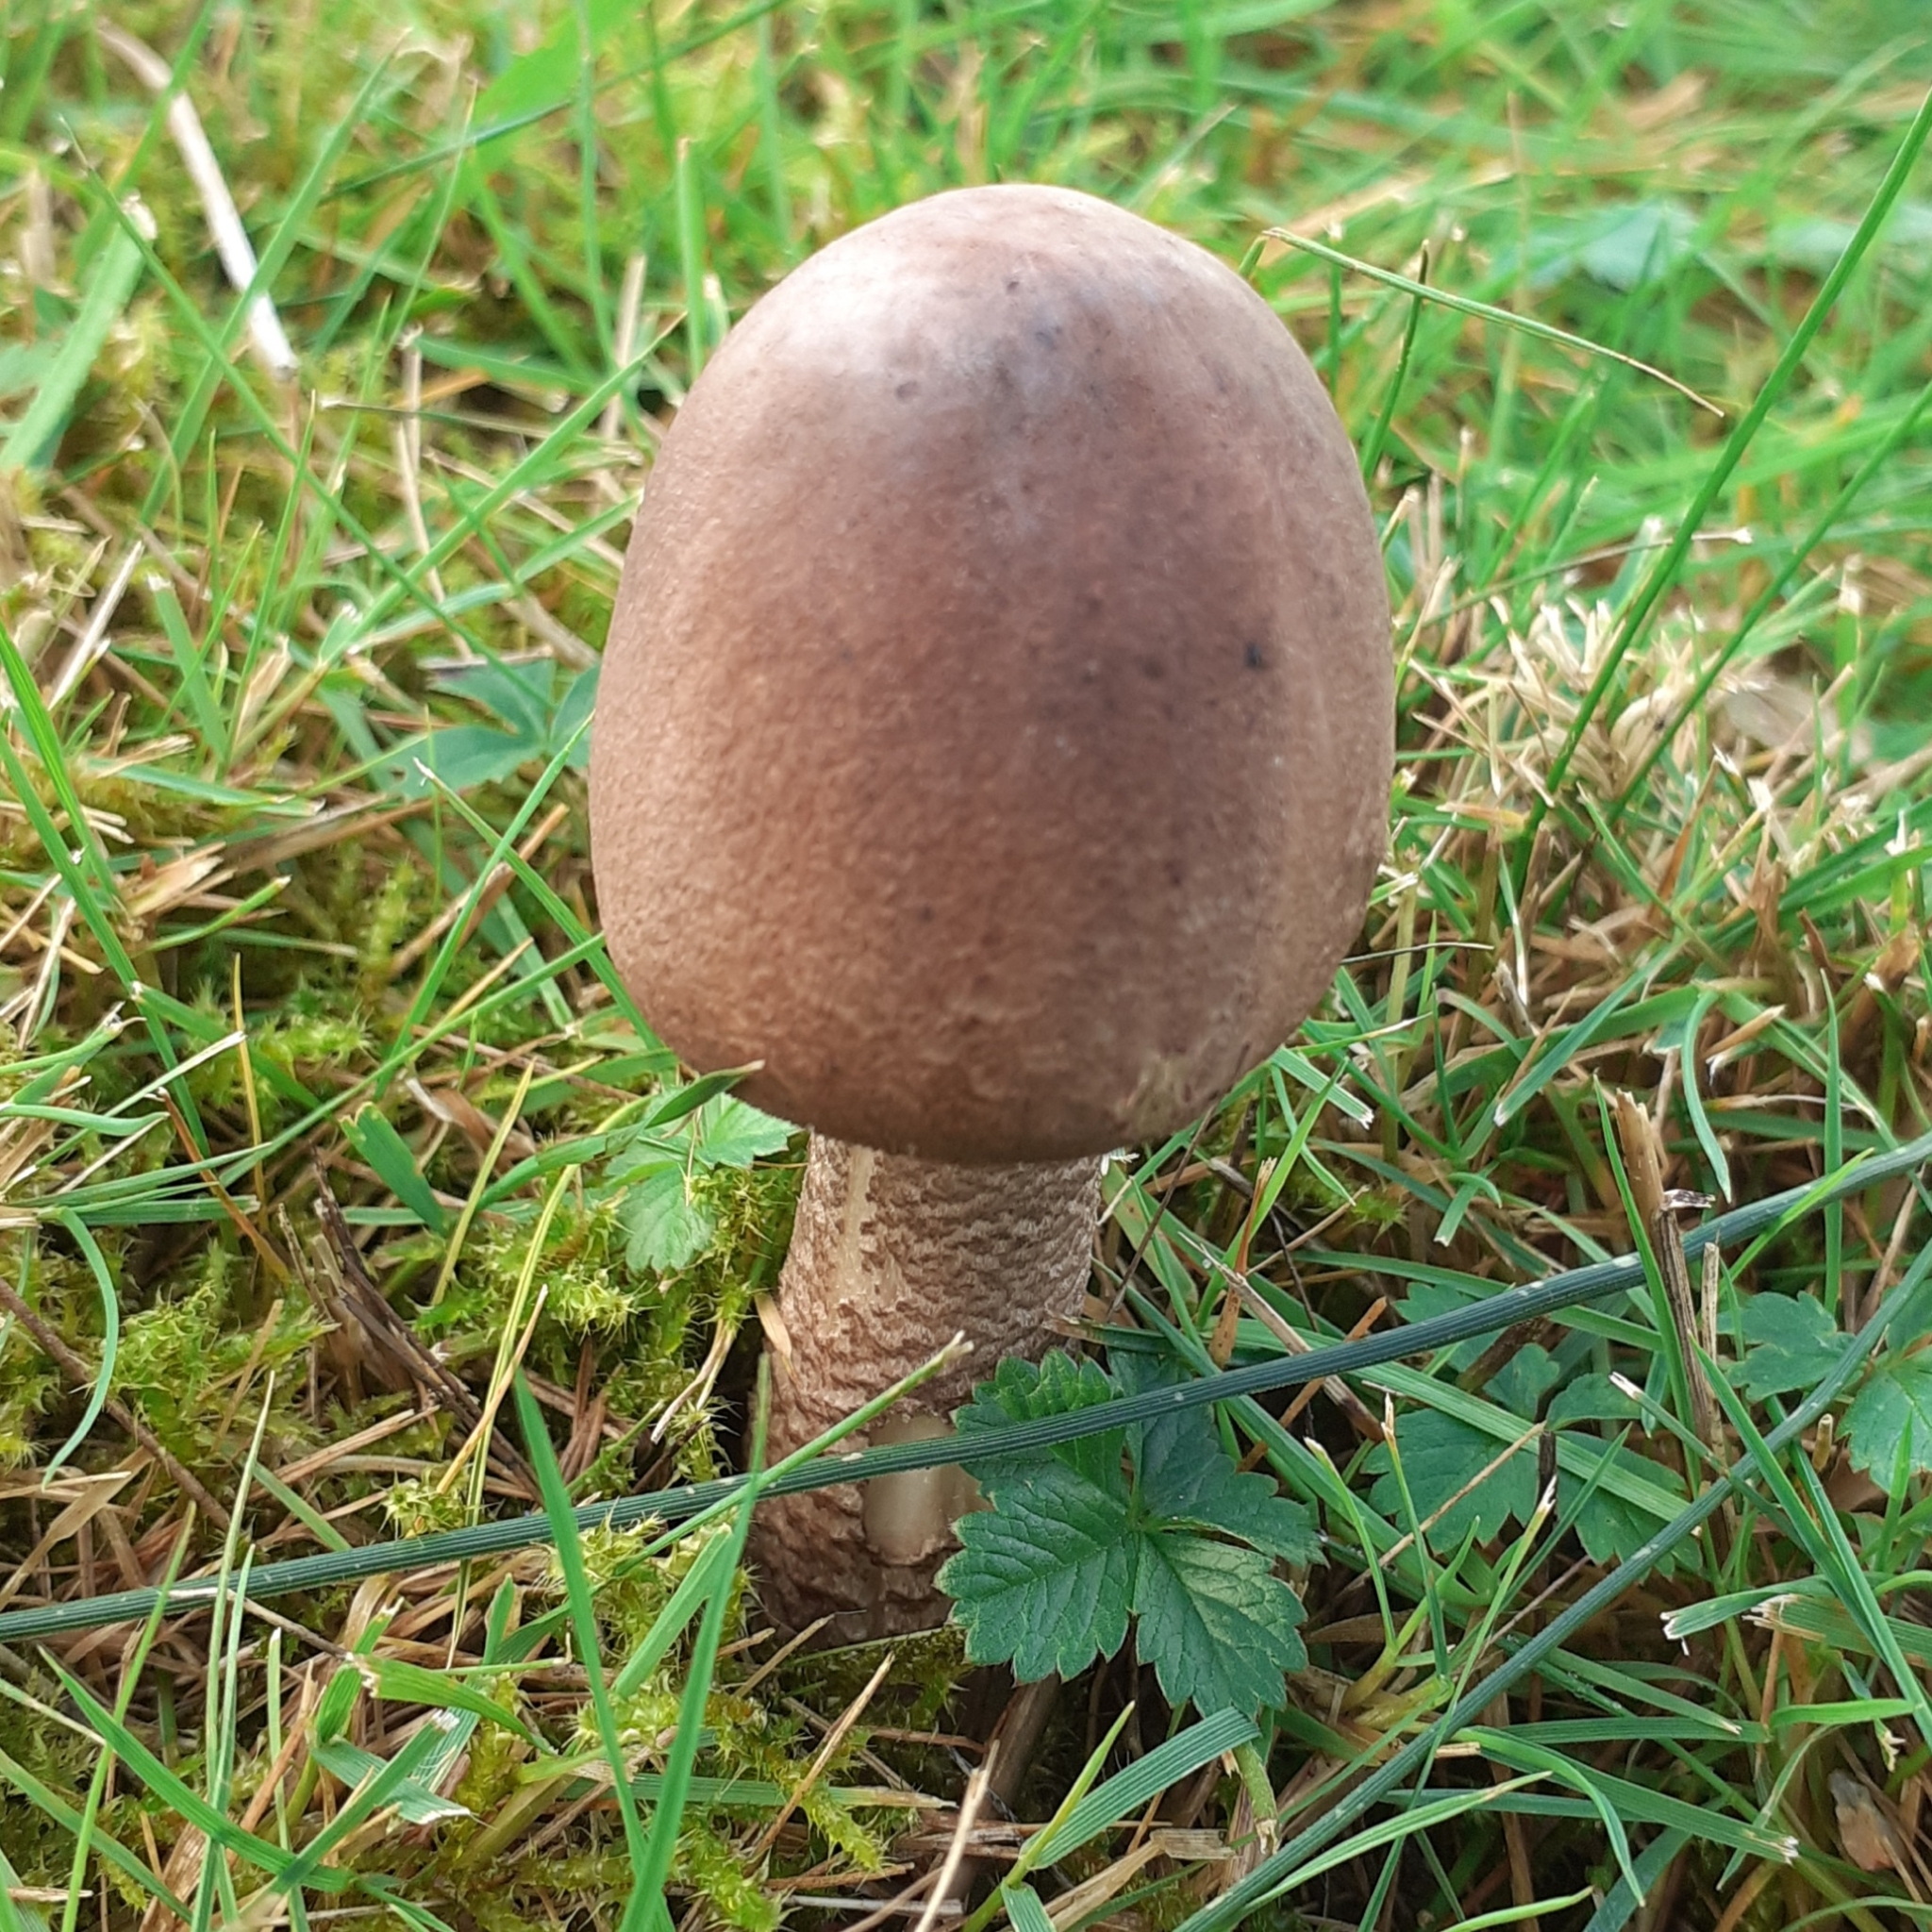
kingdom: Fungi
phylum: Basidiomycota
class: Agaricomycetes
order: Agaricales
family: Agaricaceae
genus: Macrolepiota
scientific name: Macrolepiota procera
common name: Parasol
